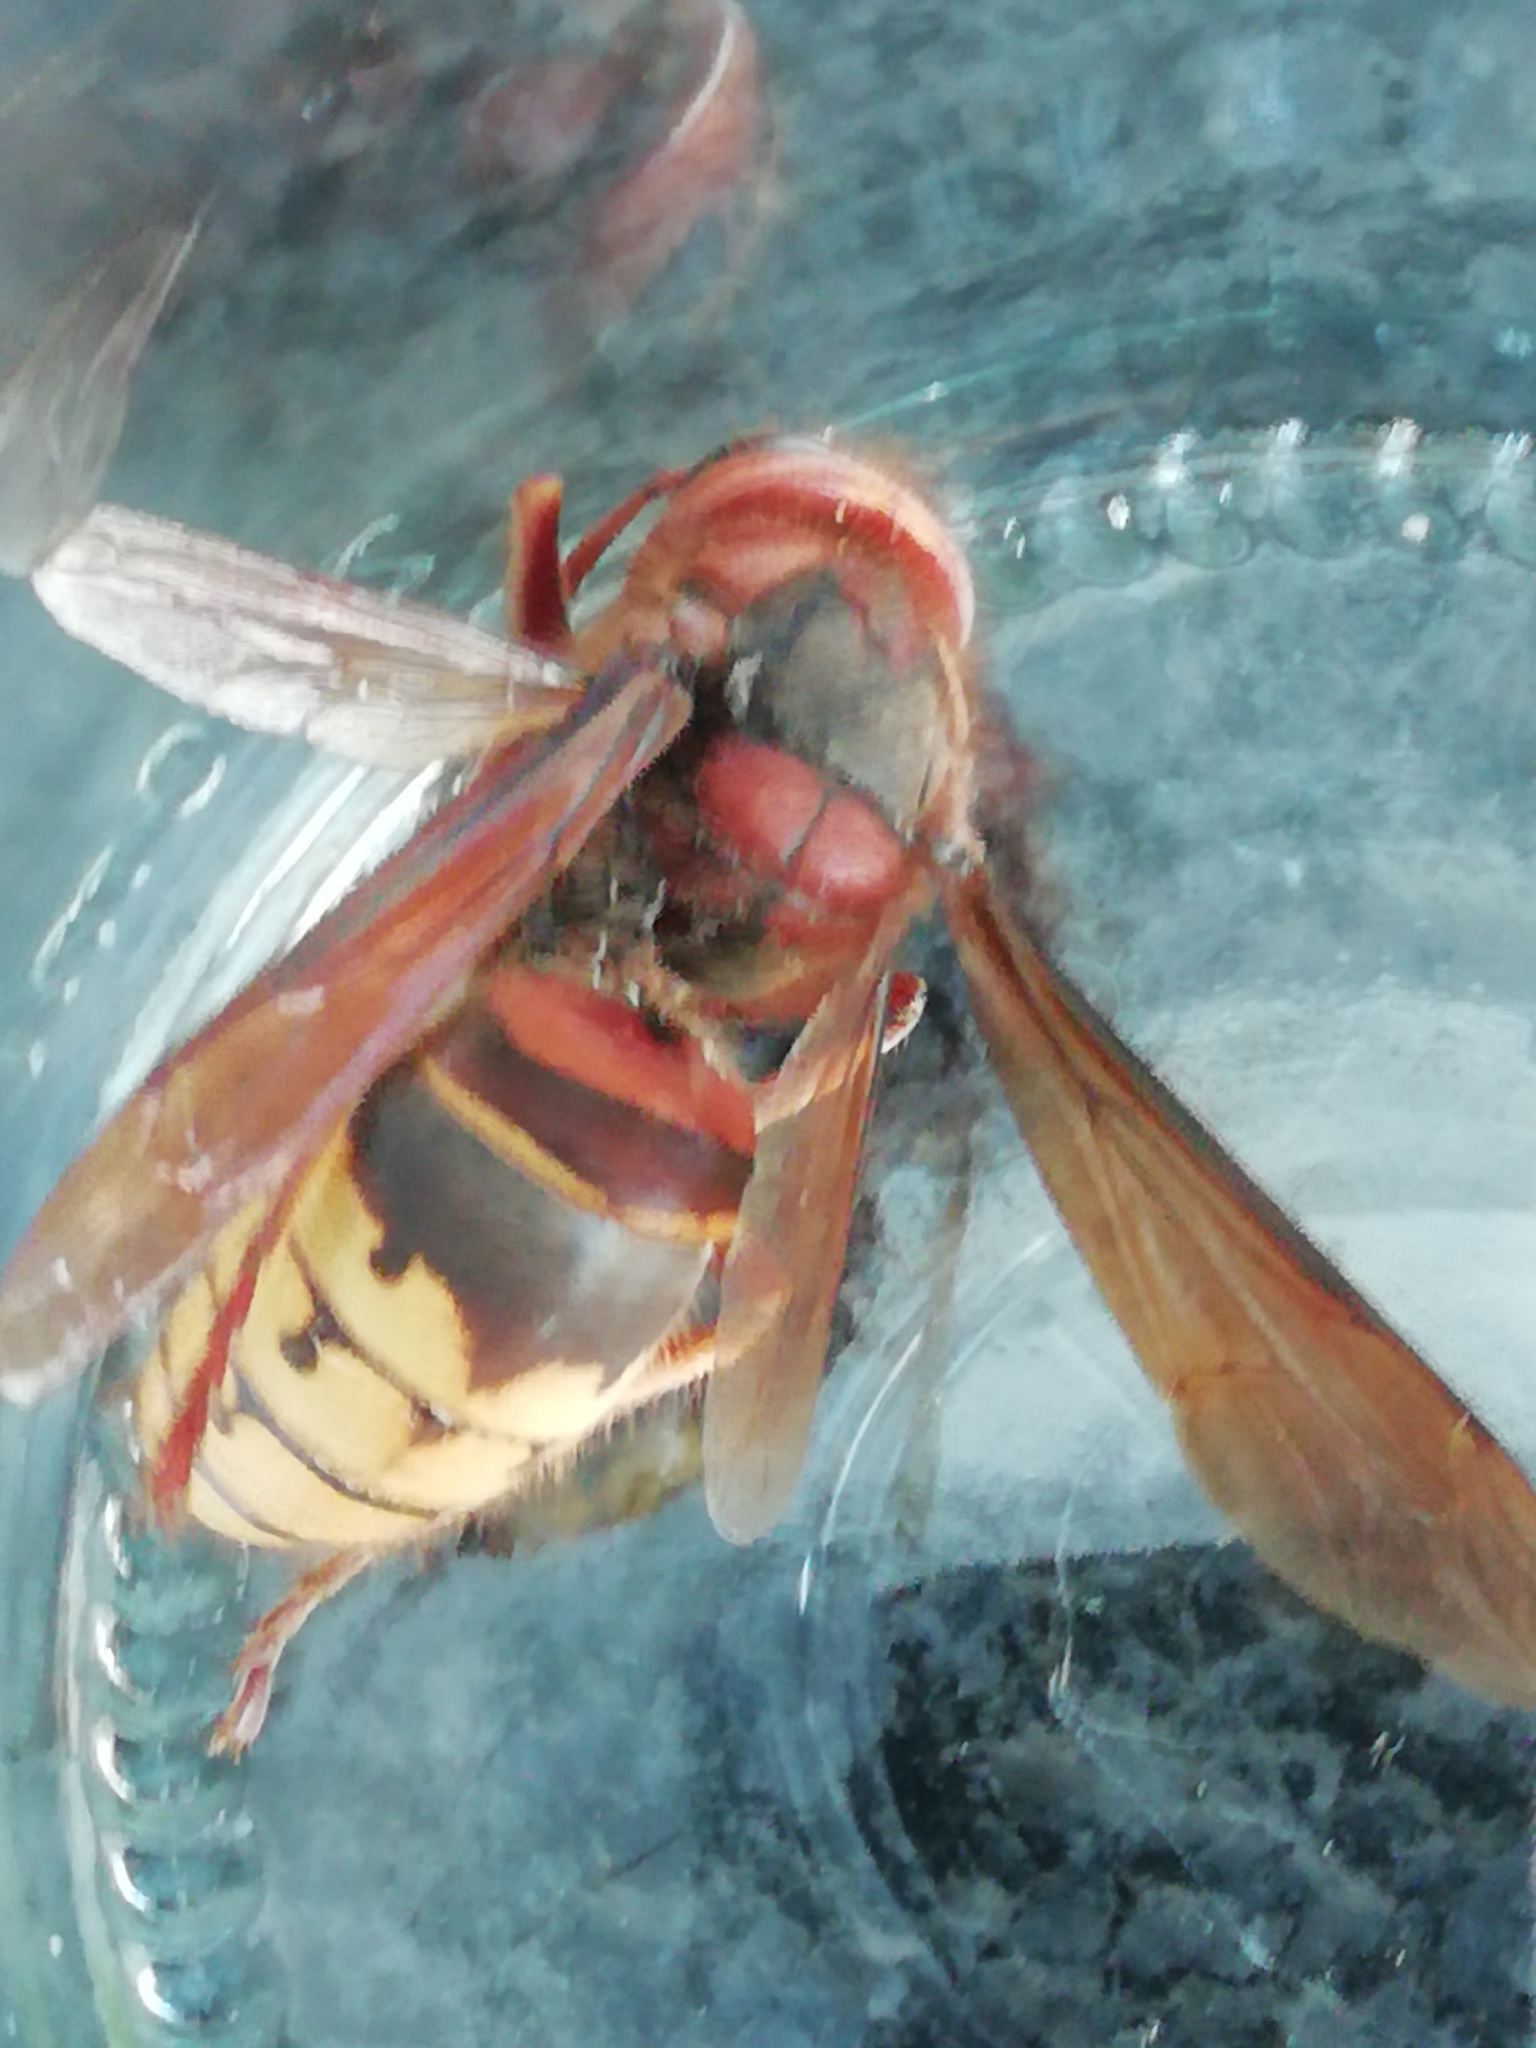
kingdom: Animalia
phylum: Arthropoda
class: Insecta
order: Hymenoptera
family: Vespidae
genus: Vespa
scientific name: Vespa crabro
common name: Hornet
